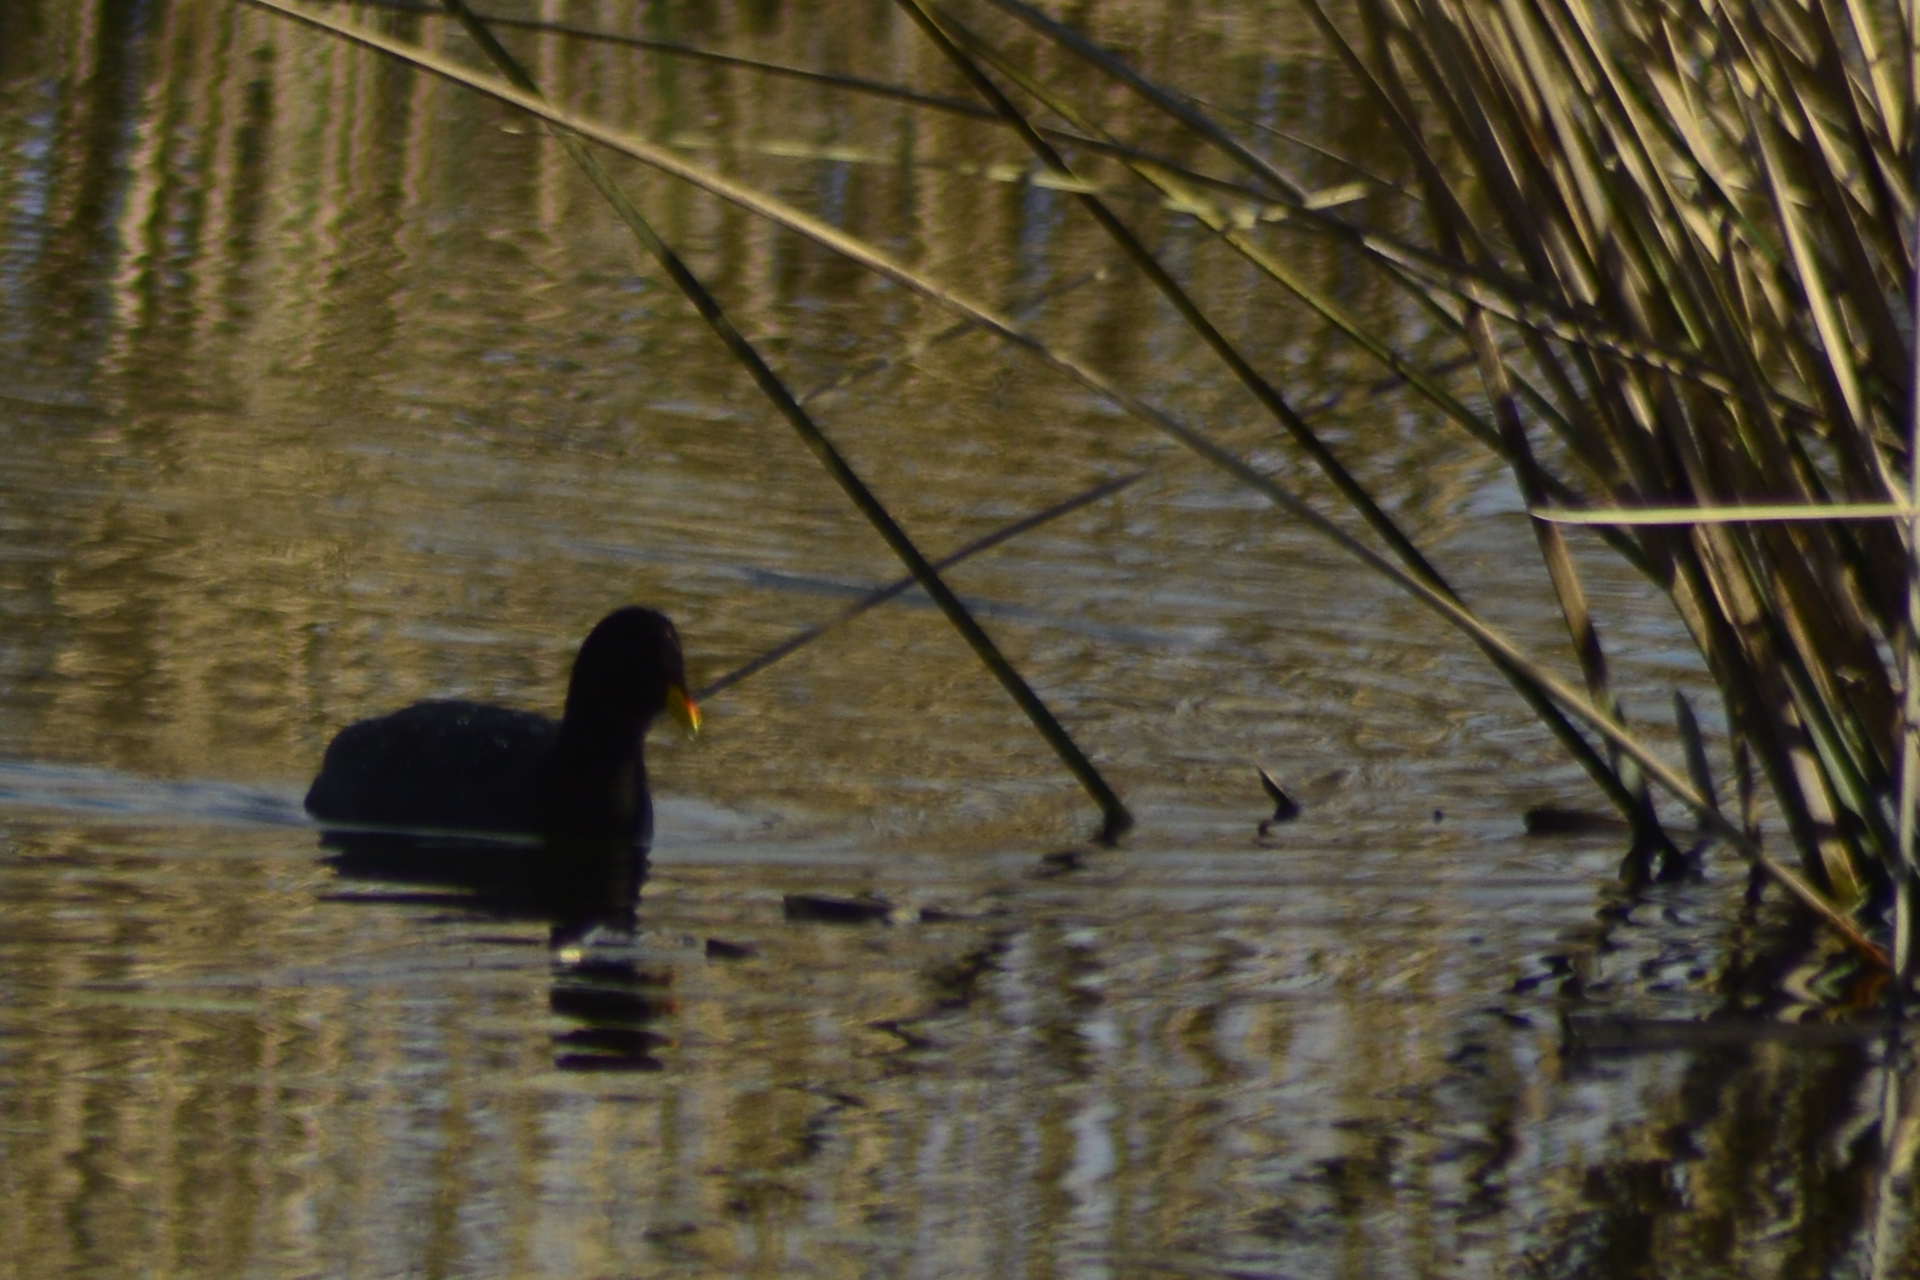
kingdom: Animalia
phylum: Chordata
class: Aves
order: Gruiformes
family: Rallidae
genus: Fulica
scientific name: Fulica rufifrons
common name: Red-fronted coot
